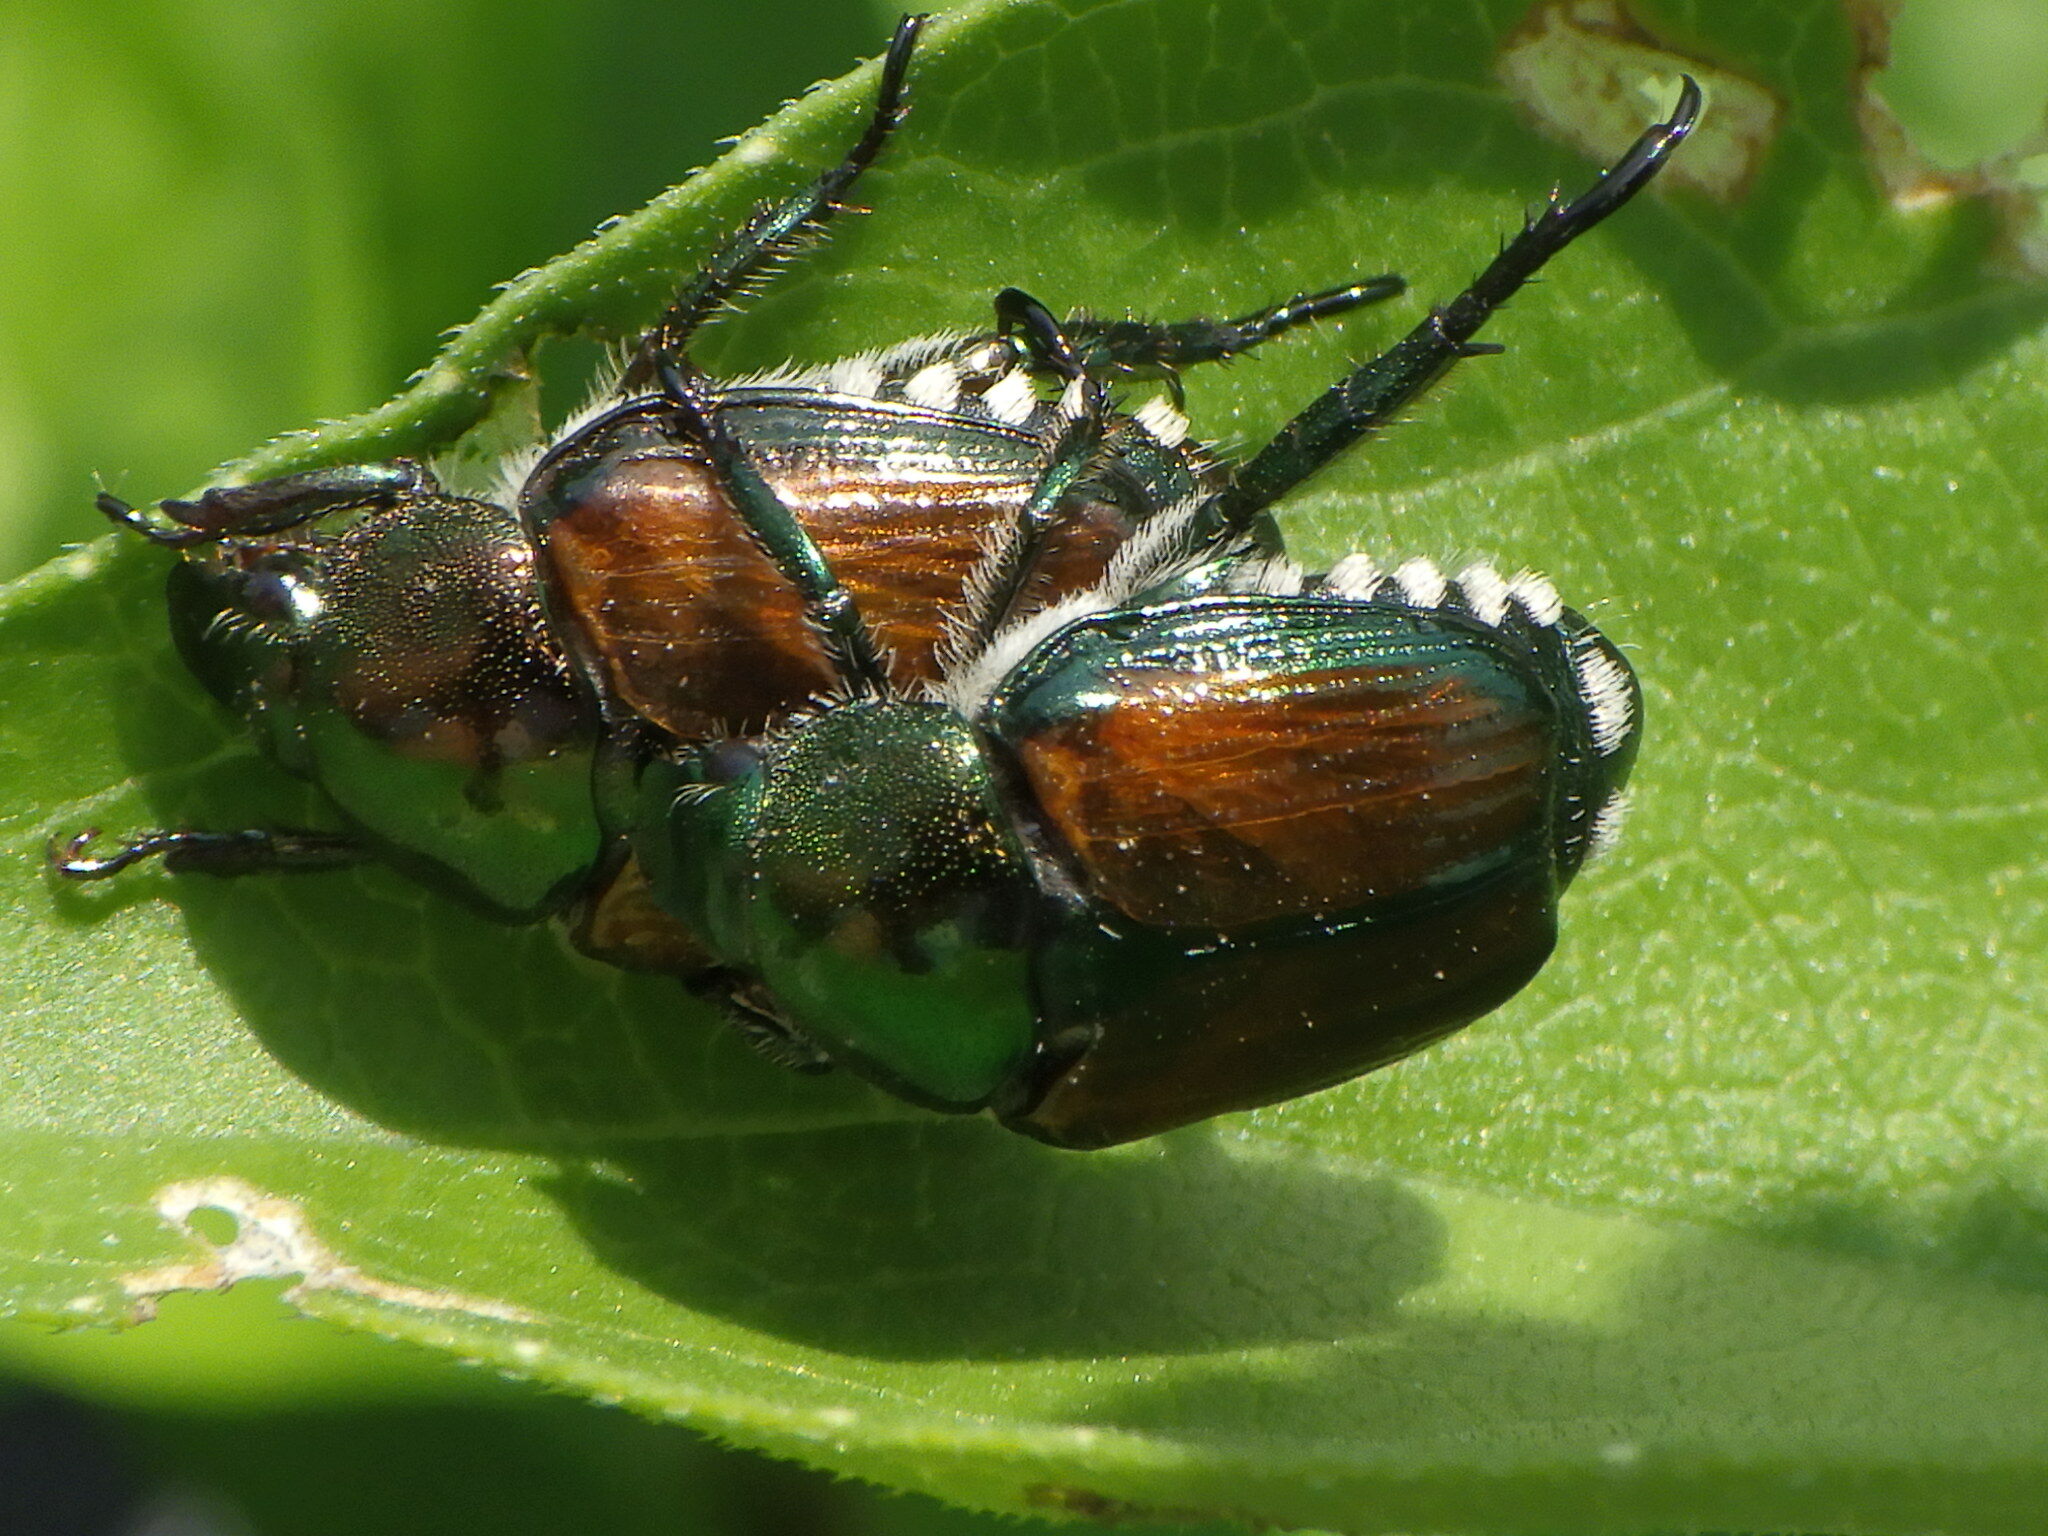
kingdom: Animalia
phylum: Arthropoda
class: Insecta
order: Coleoptera
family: Scarabaeidae
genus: Popillia
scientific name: Popillia japonica
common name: Japanese beetle
